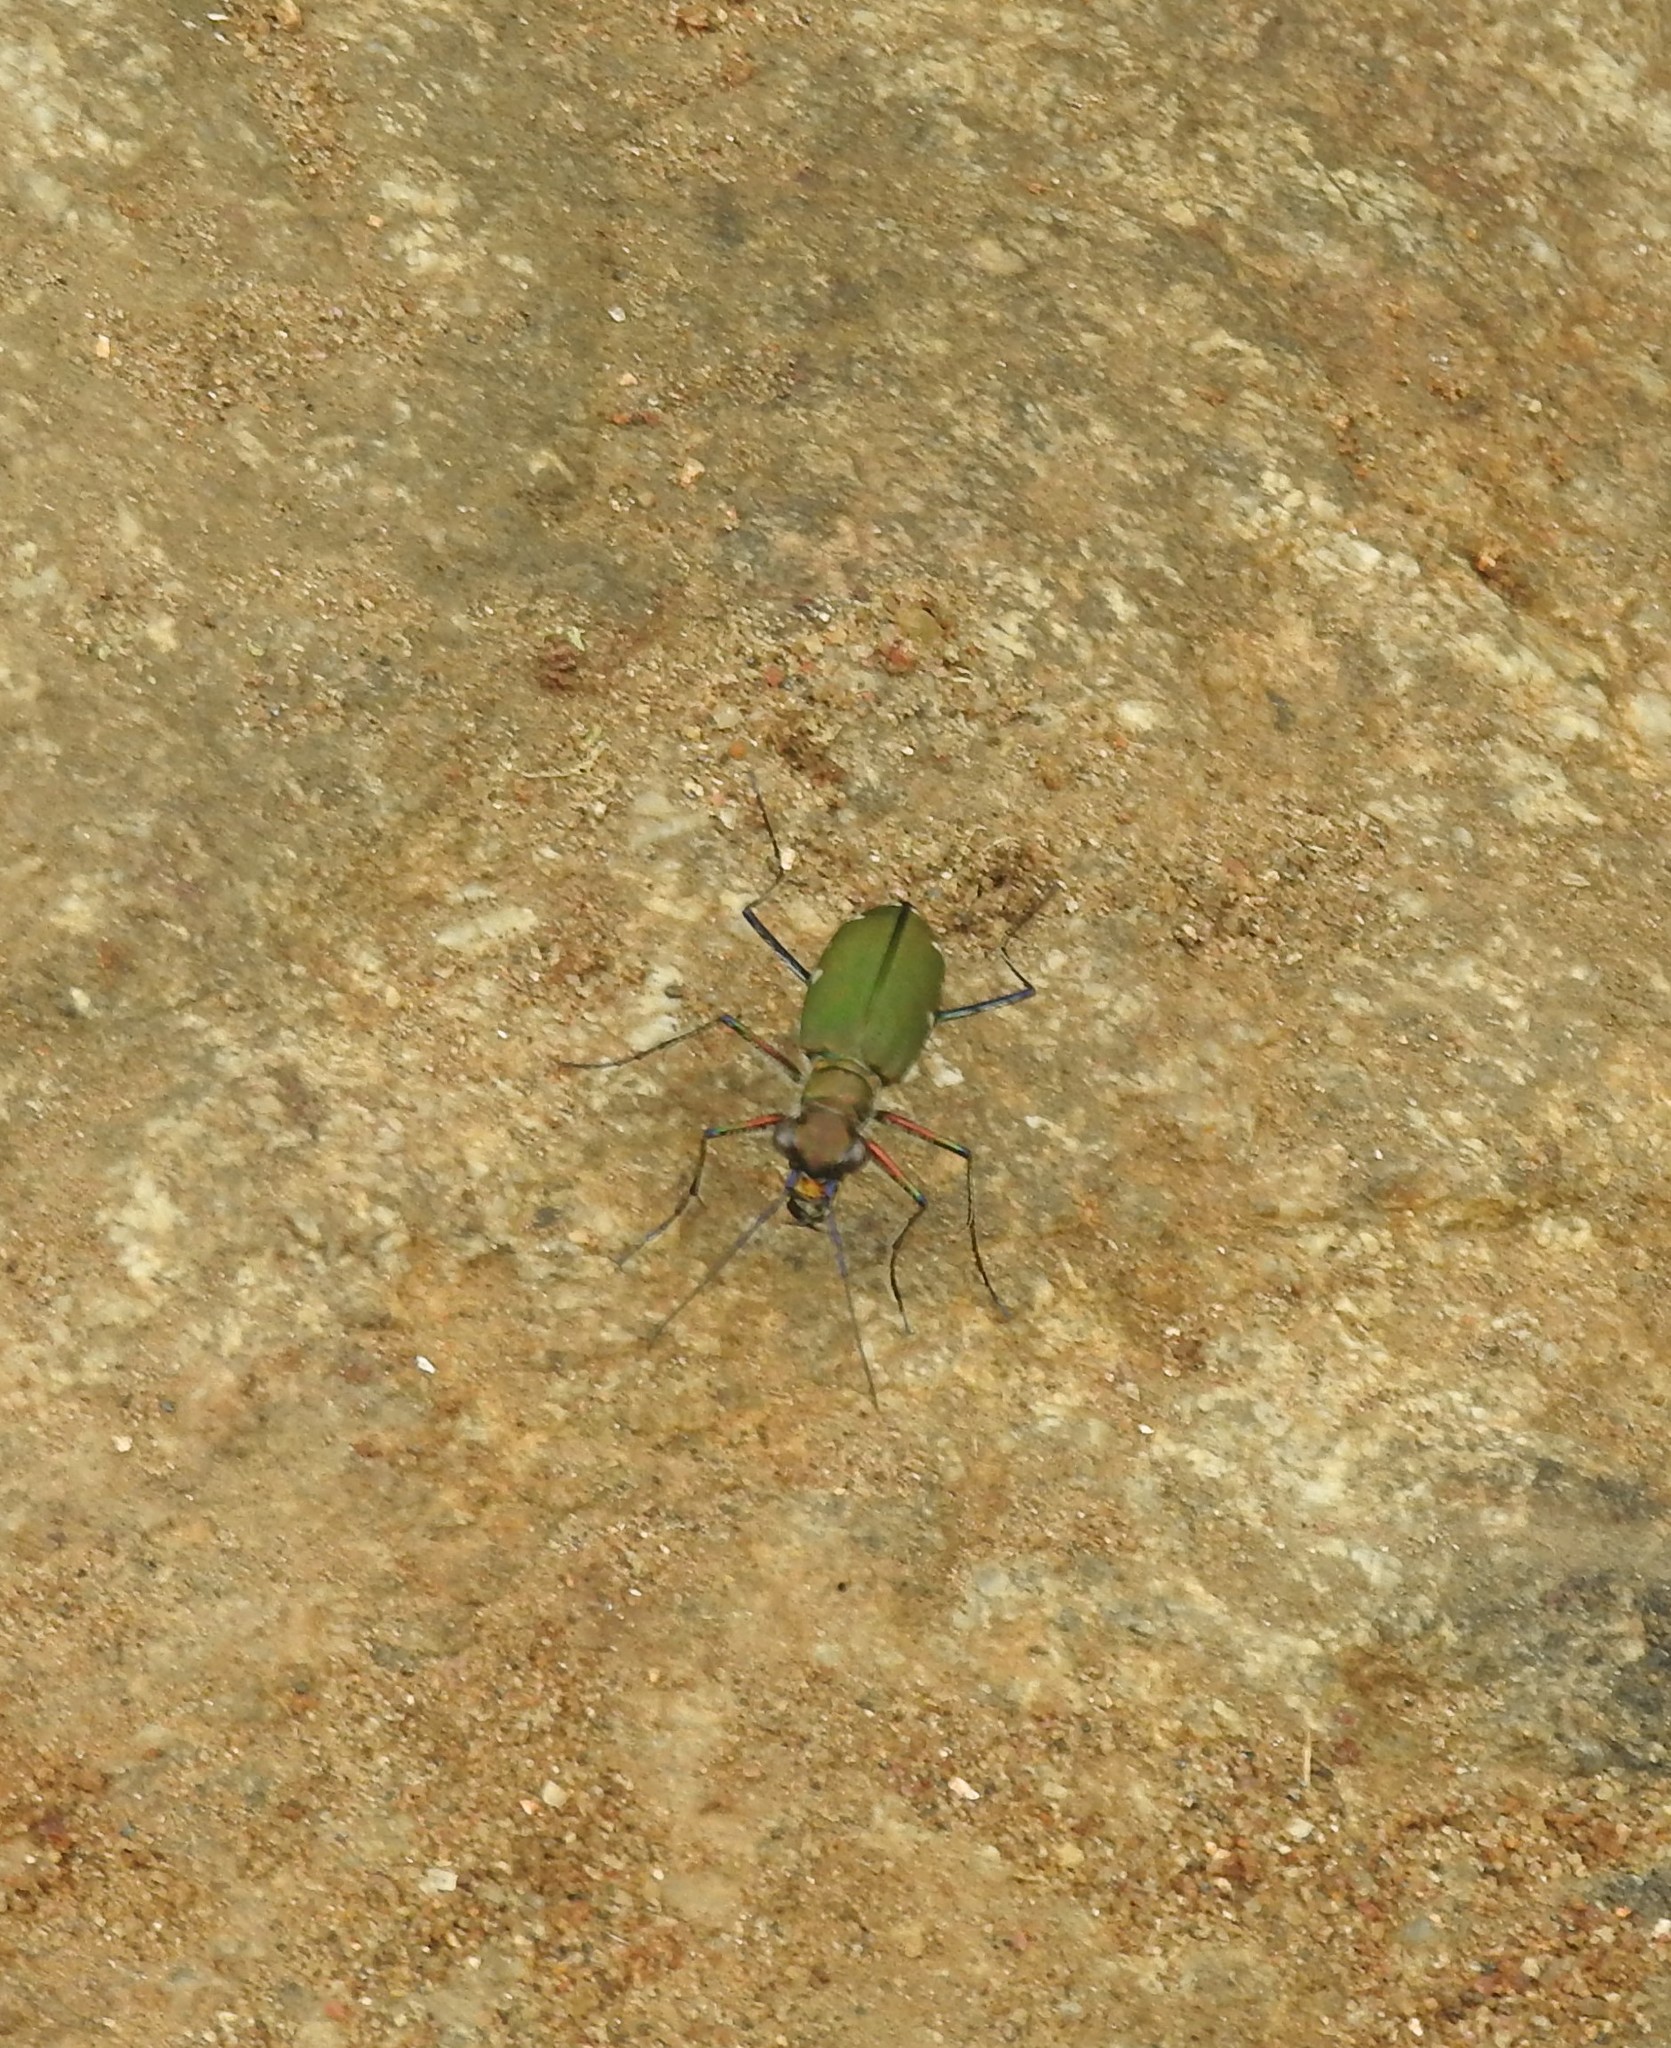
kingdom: Animalia
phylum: Arthropoda
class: Insecta
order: Coleoptera
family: Carabidae
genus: Cicindela
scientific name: Cicindela funerea
